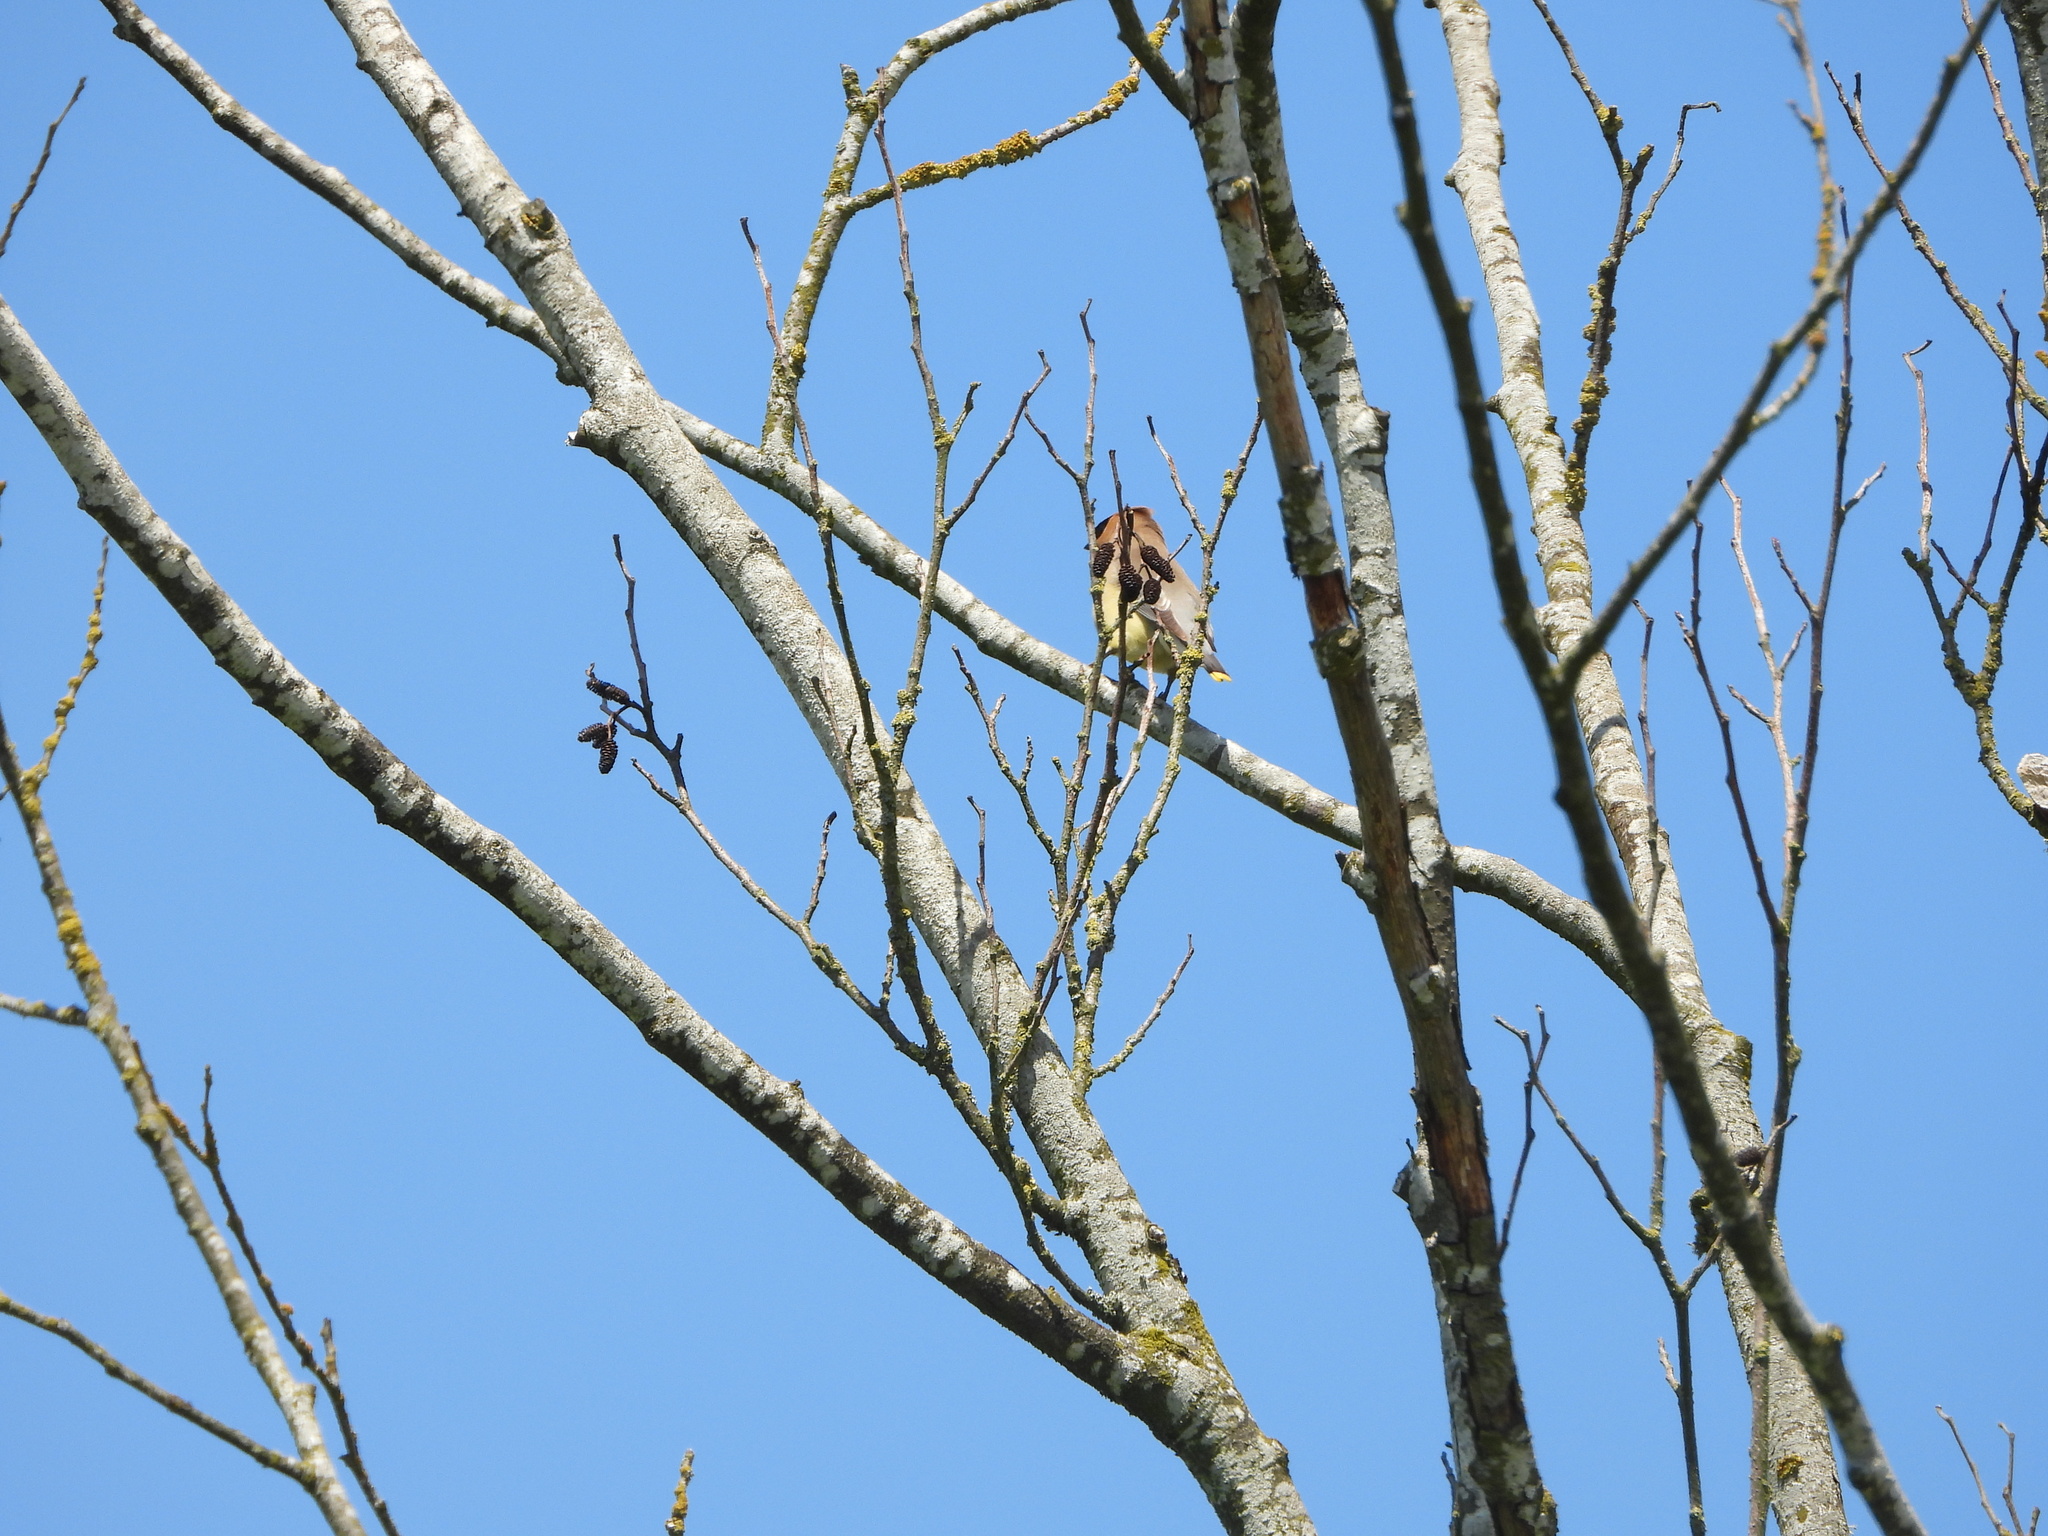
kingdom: Animalia
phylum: Chordata
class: Aves
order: Passeriformes
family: Bombycillidae
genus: Bombycilla
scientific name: Bombycilla cedrorum
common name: Cedar waxwing
